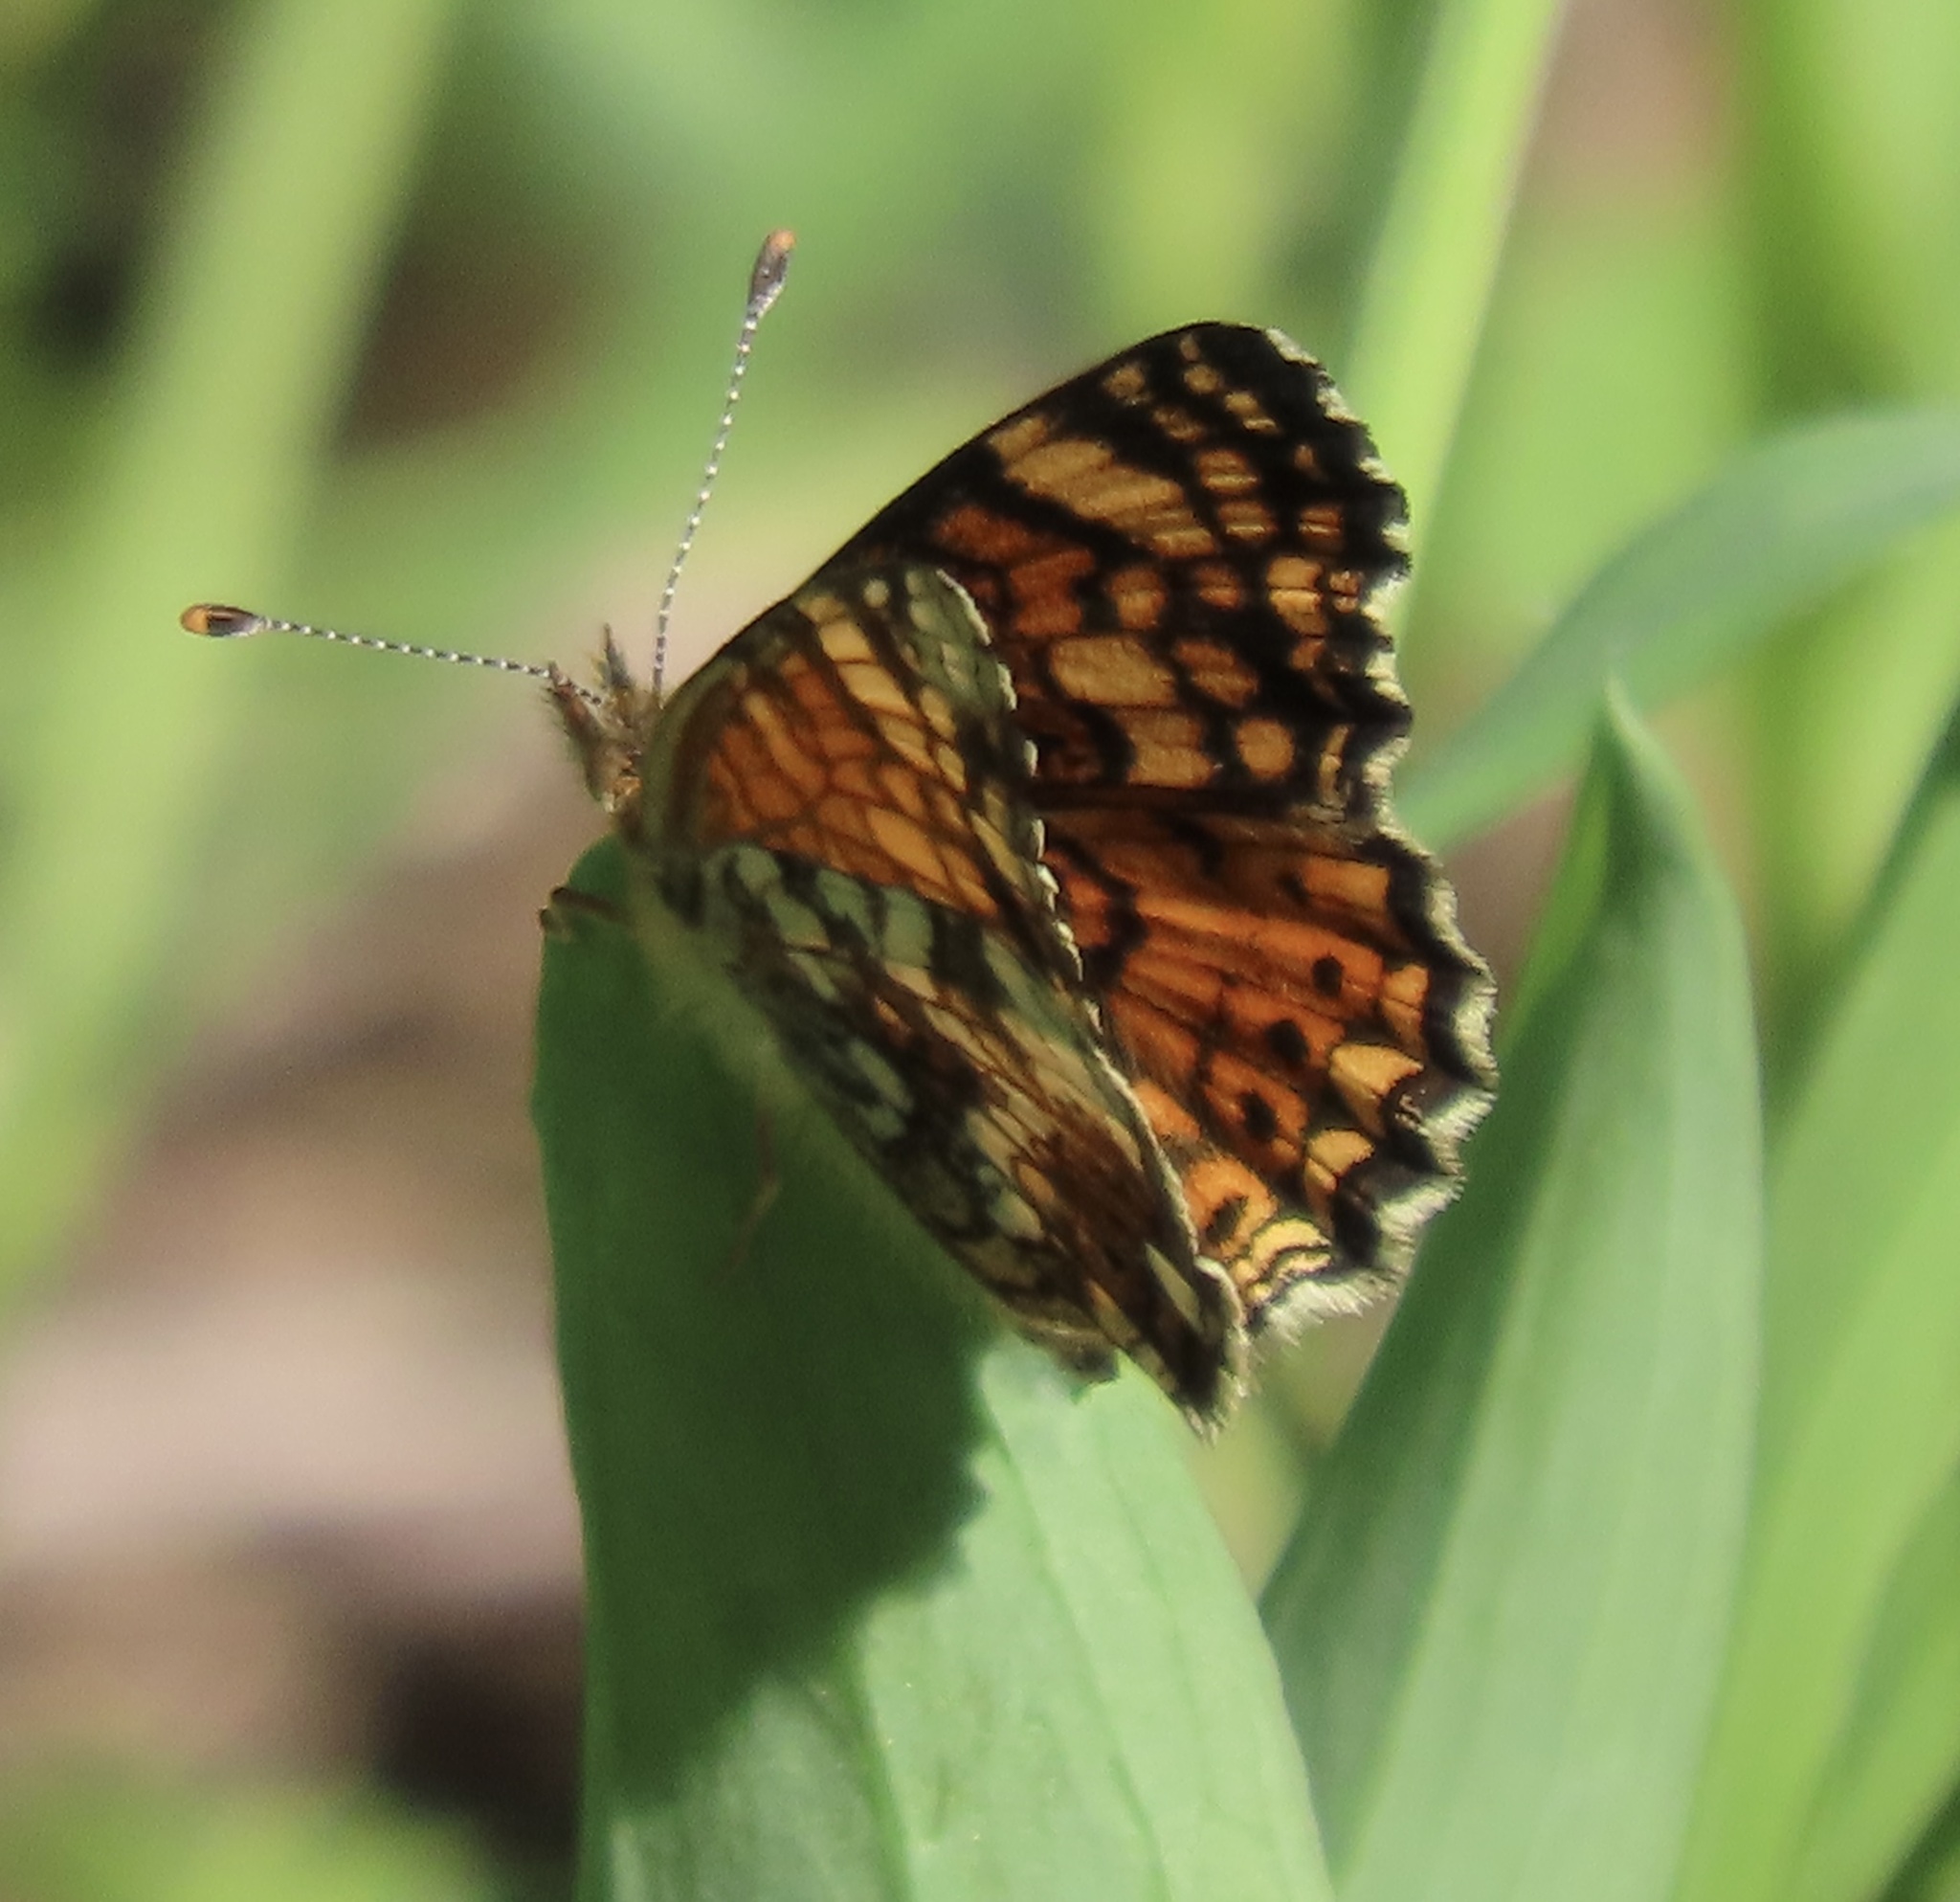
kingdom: Animalia
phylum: Arthropoda
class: Insecta
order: Lepidoptera
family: Nymphalidae
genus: Eresia
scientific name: Eresia aveyrona
